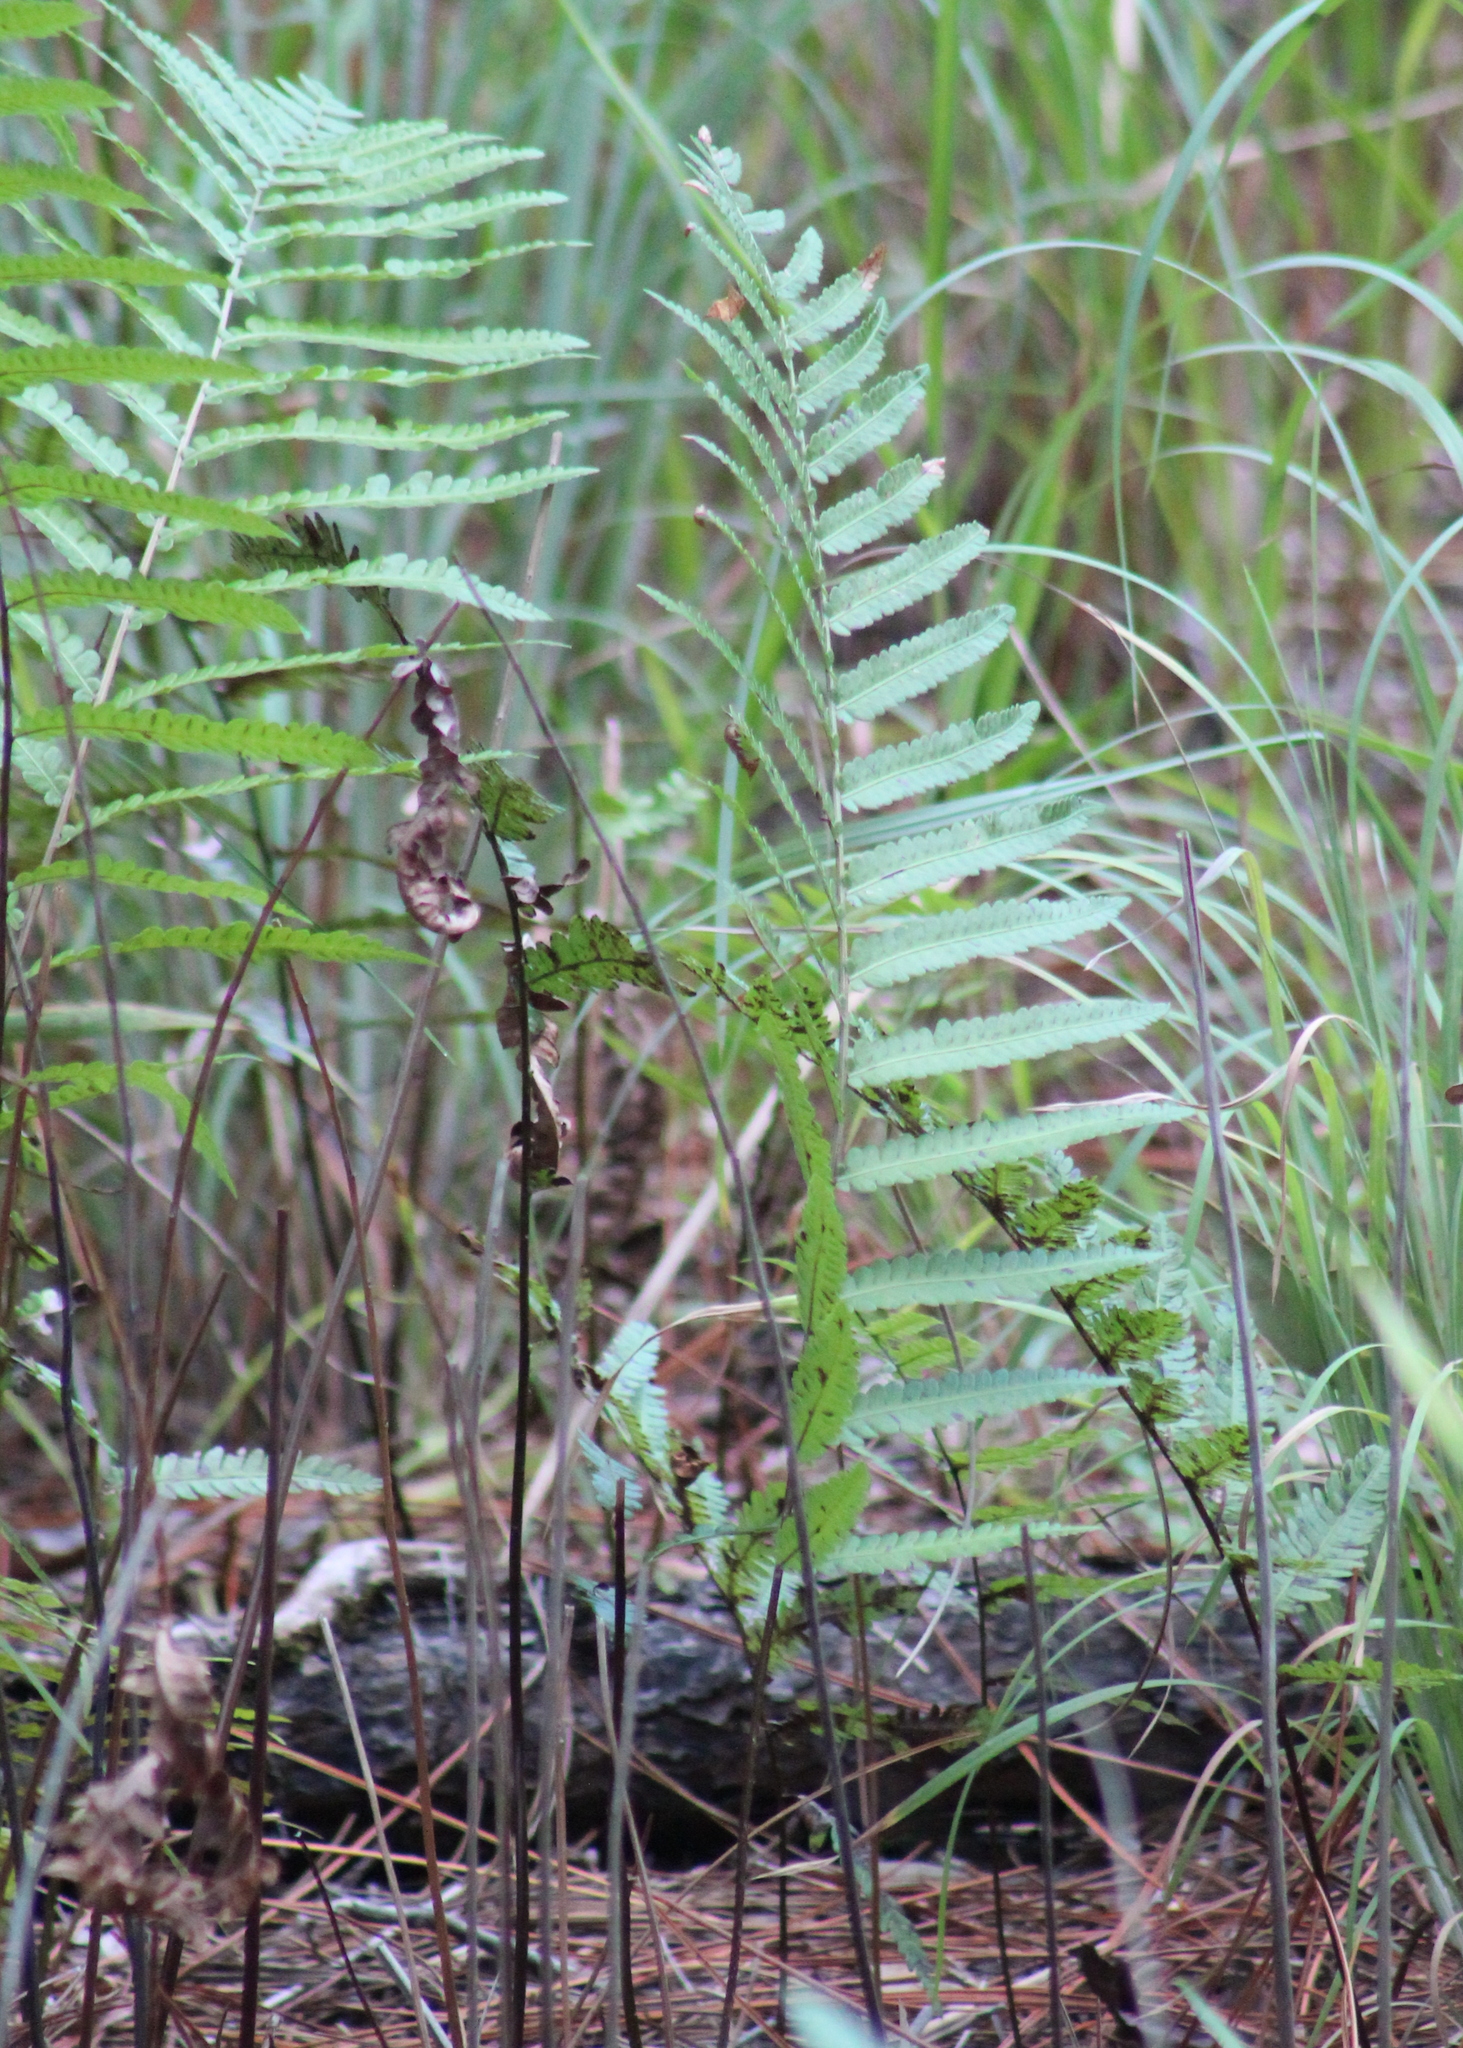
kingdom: Plantae
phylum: Tracheophyta
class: Polypodiopsida
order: Polypodiales
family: Blechnaceae
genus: Anchistea
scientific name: Anchistea virginica
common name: Virginia chain fern
